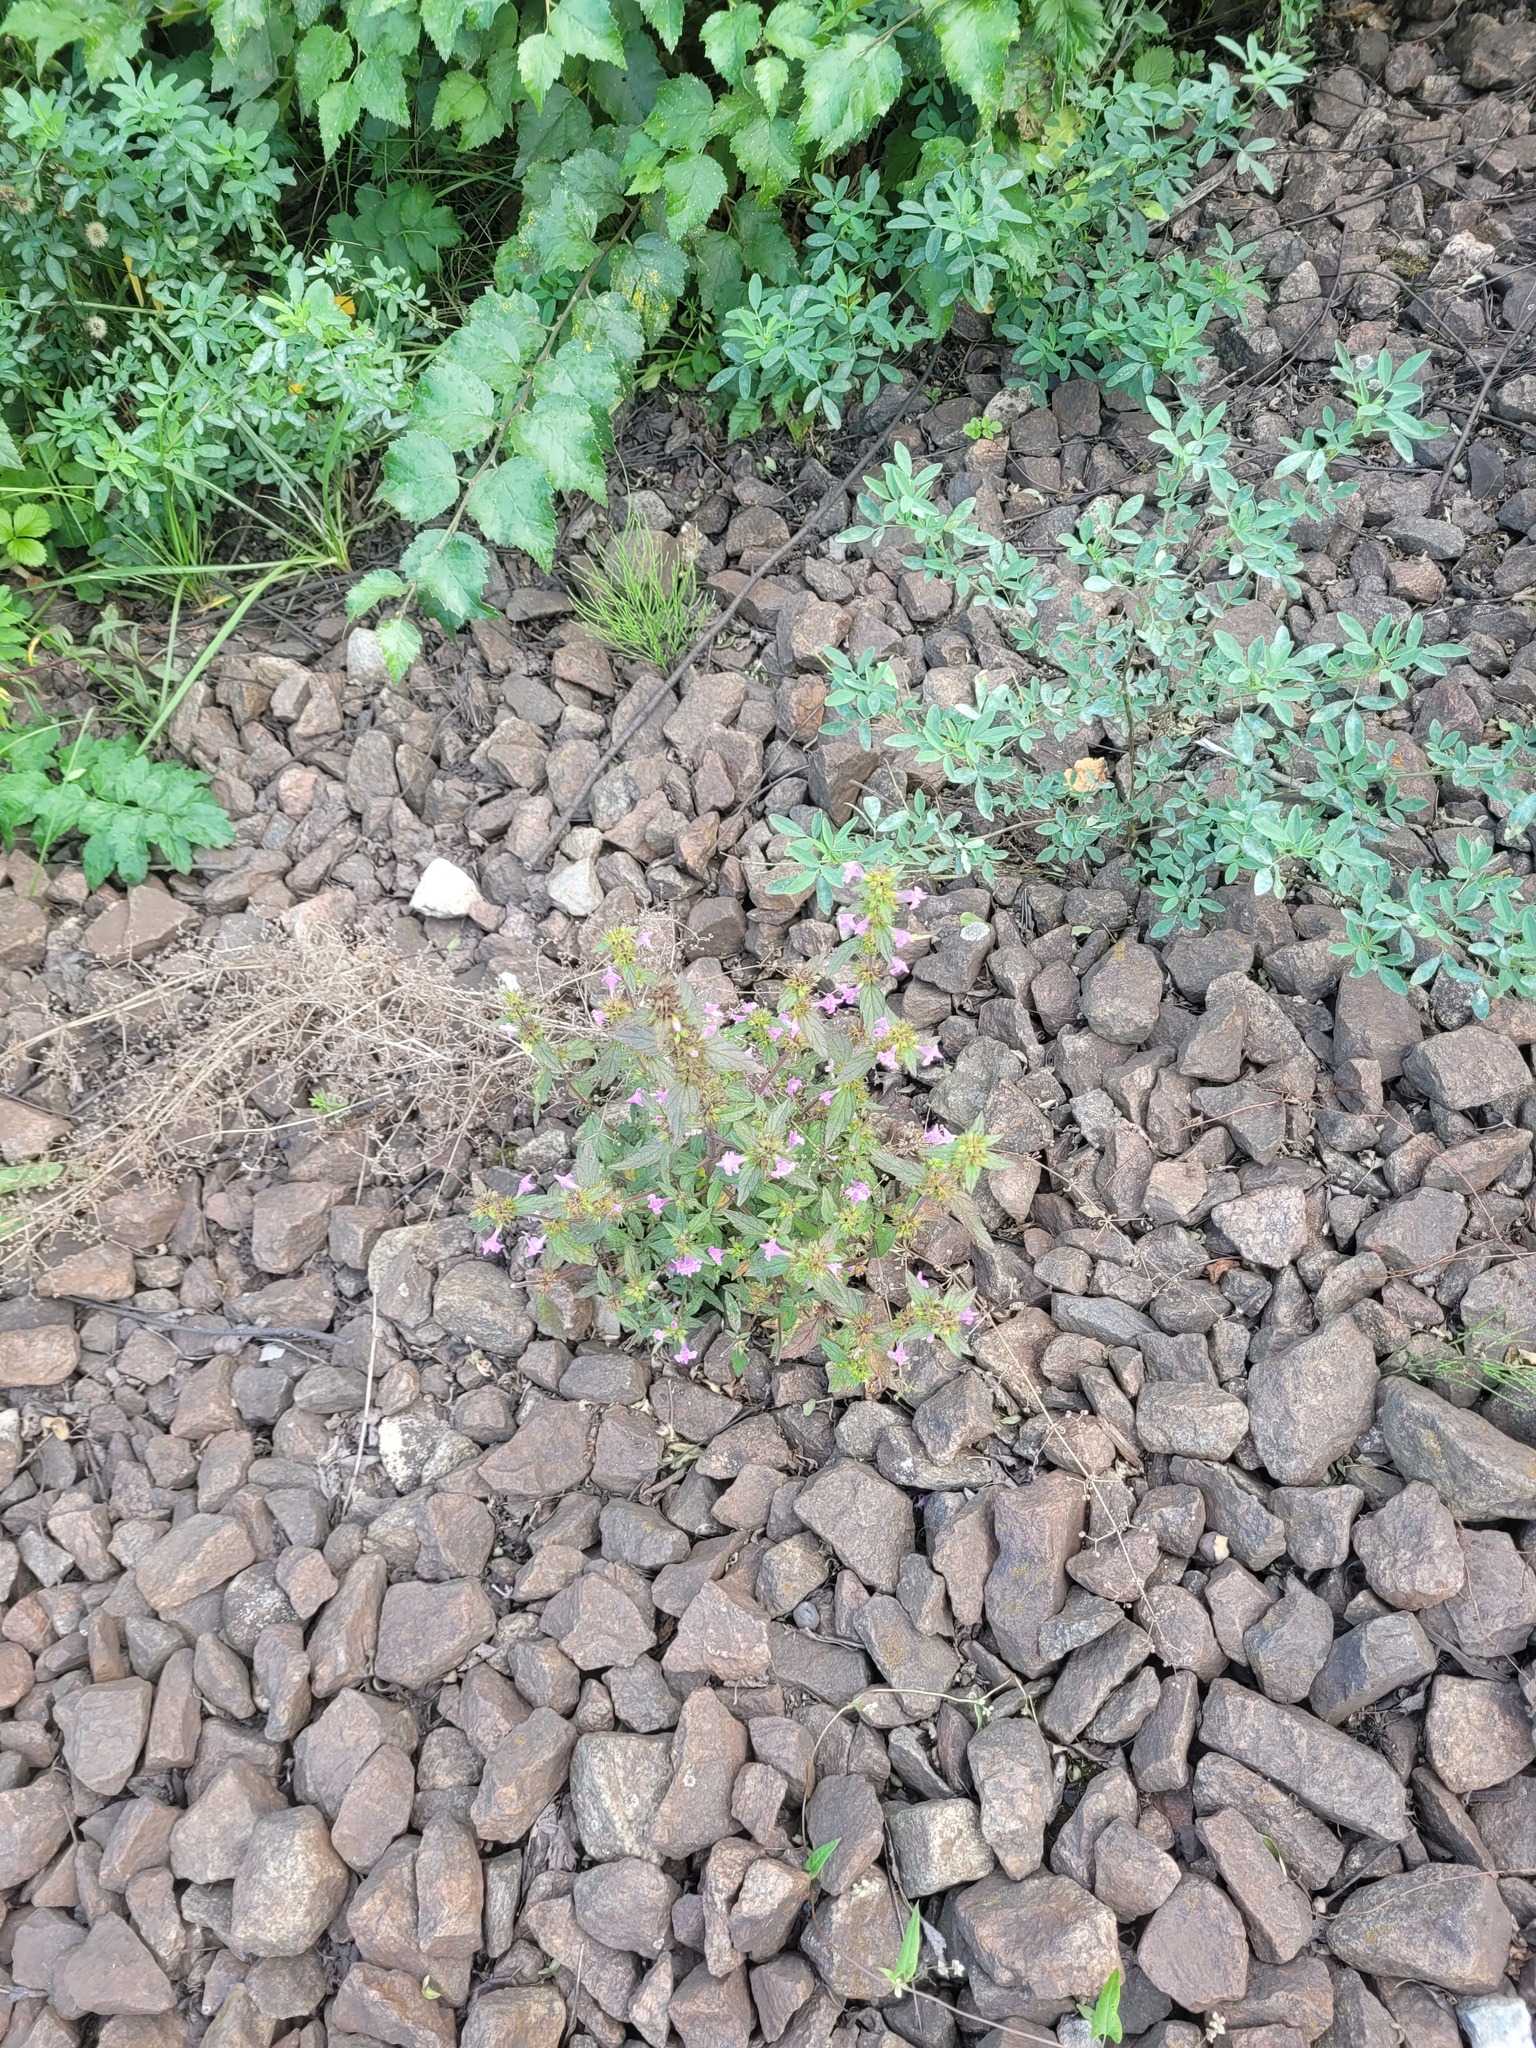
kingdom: Plantae
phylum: Tracheophyta
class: Magnoliopsida
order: Lamiales
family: Lamiaceae
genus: Galeopsis
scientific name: Galeopsis ladanum
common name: Broad-leaved hemp-nettle
